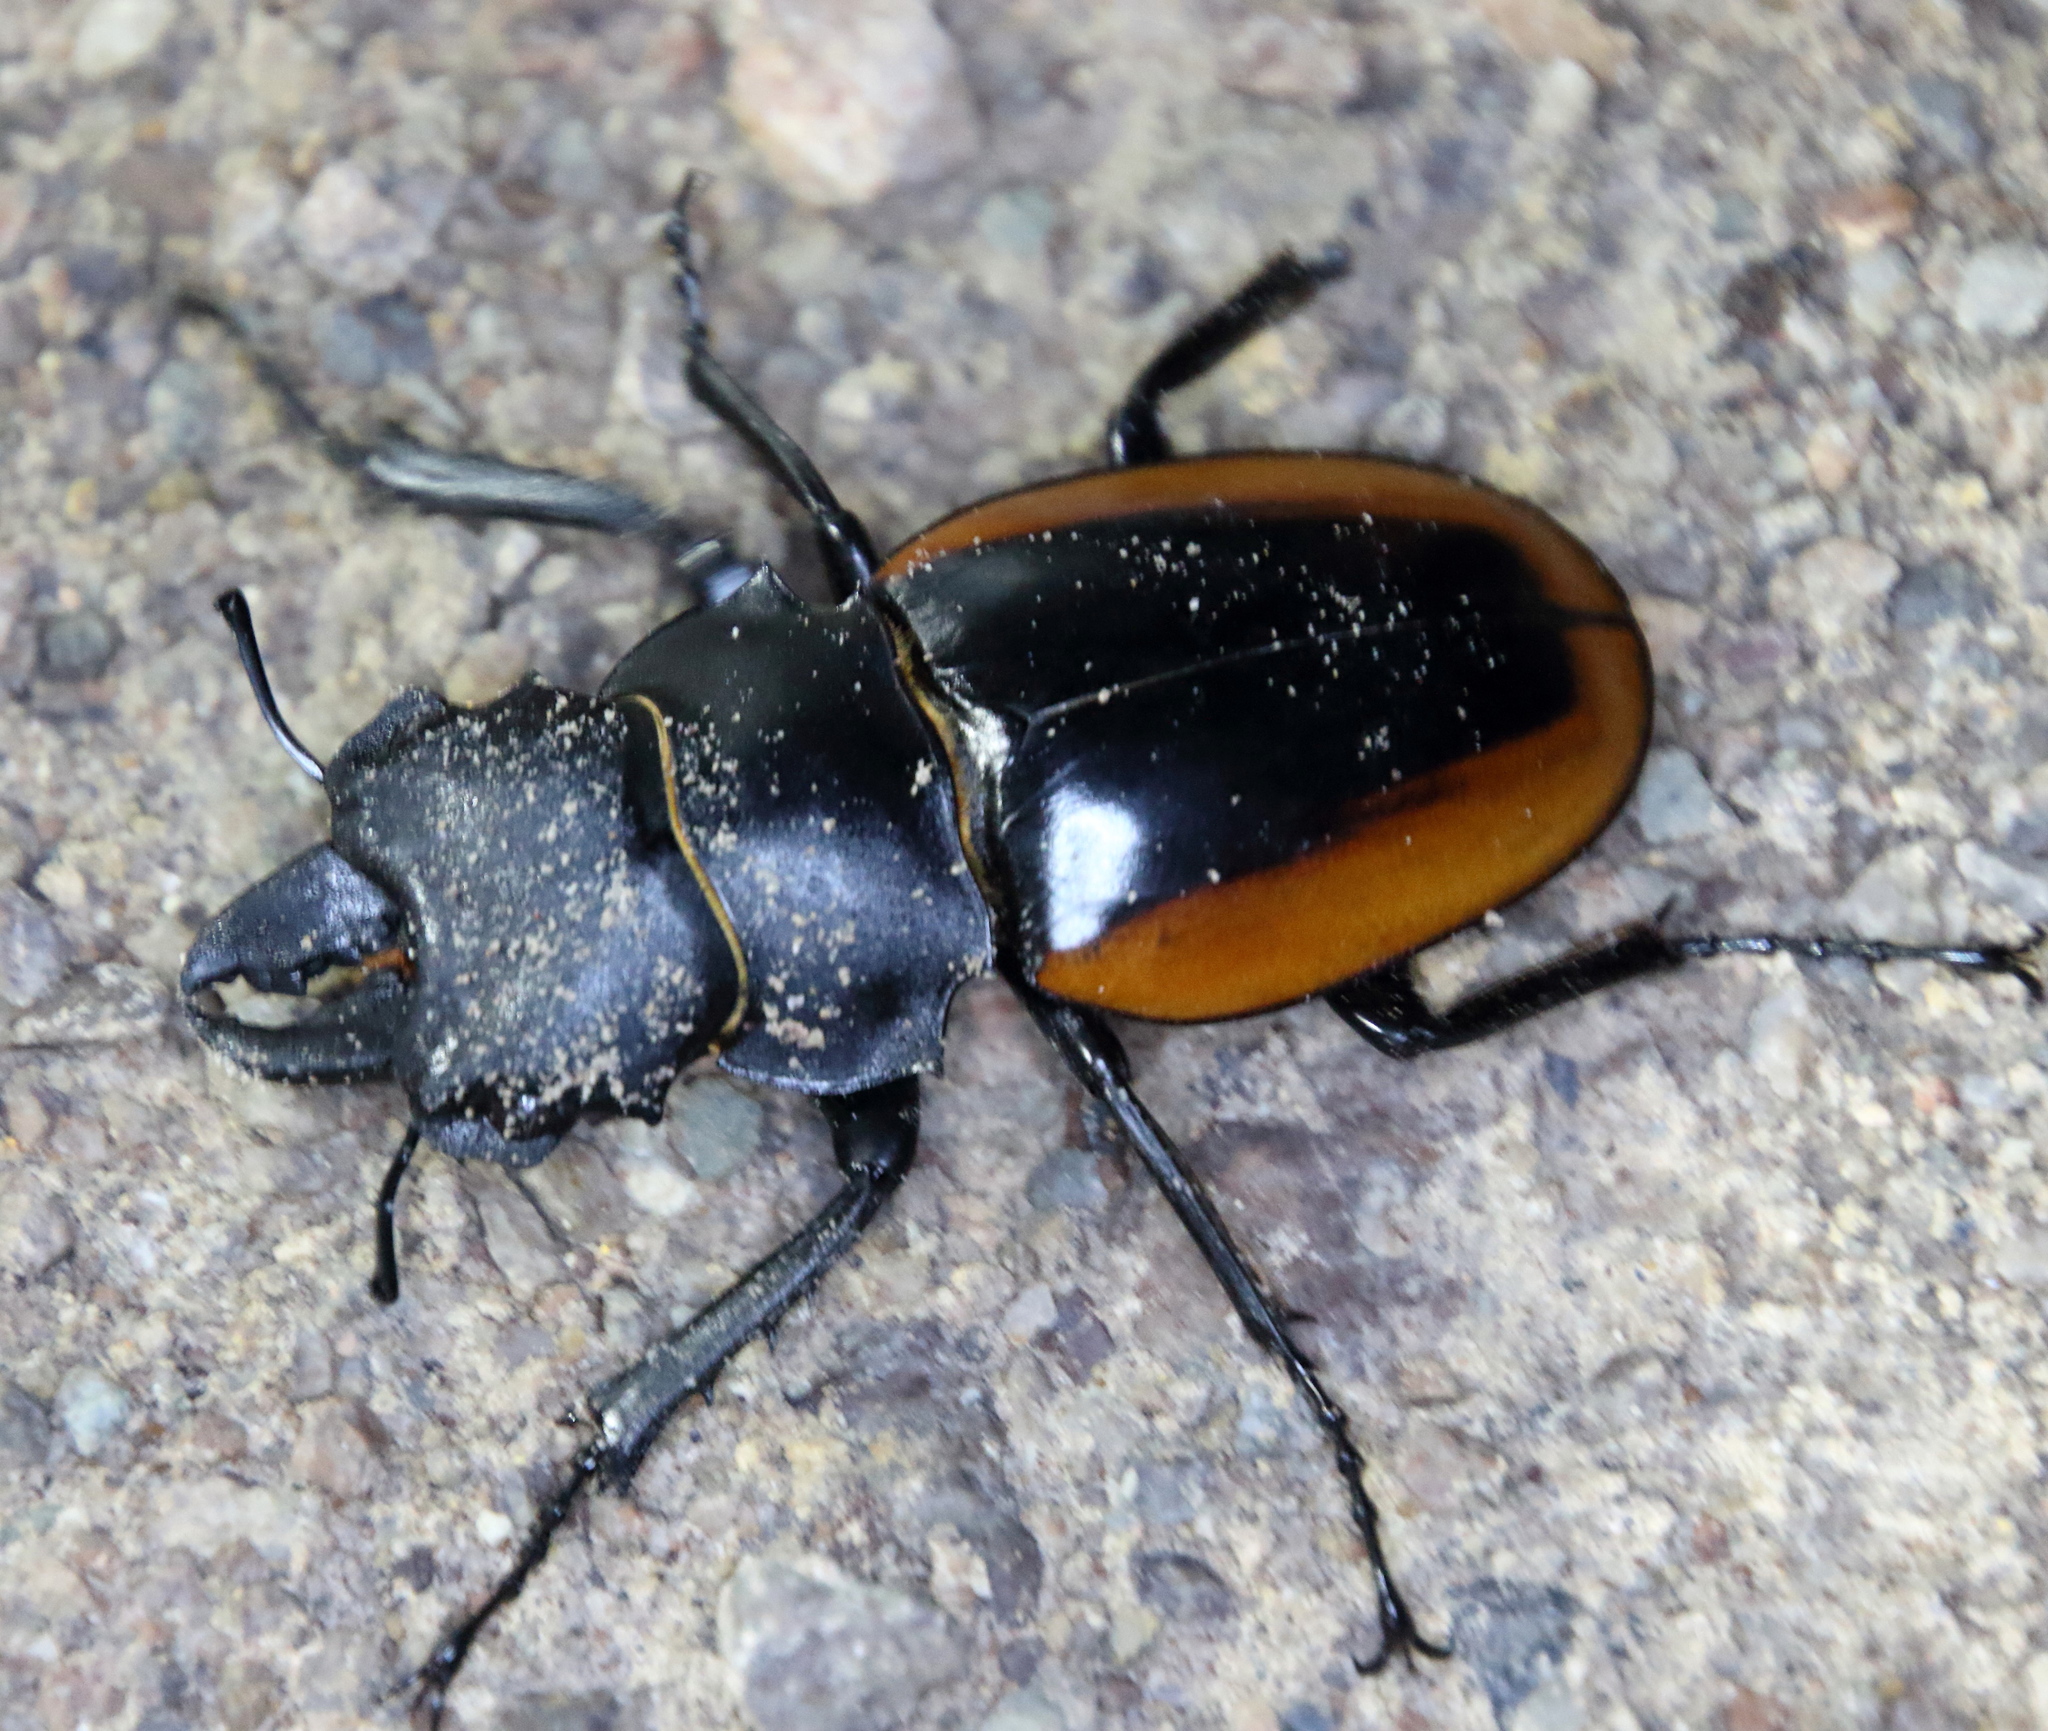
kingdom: Animalia
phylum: Arthropoda
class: Insecta
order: Coleoptera
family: Lucanidae
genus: Odontolabis
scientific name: Odontolabis cuvera
